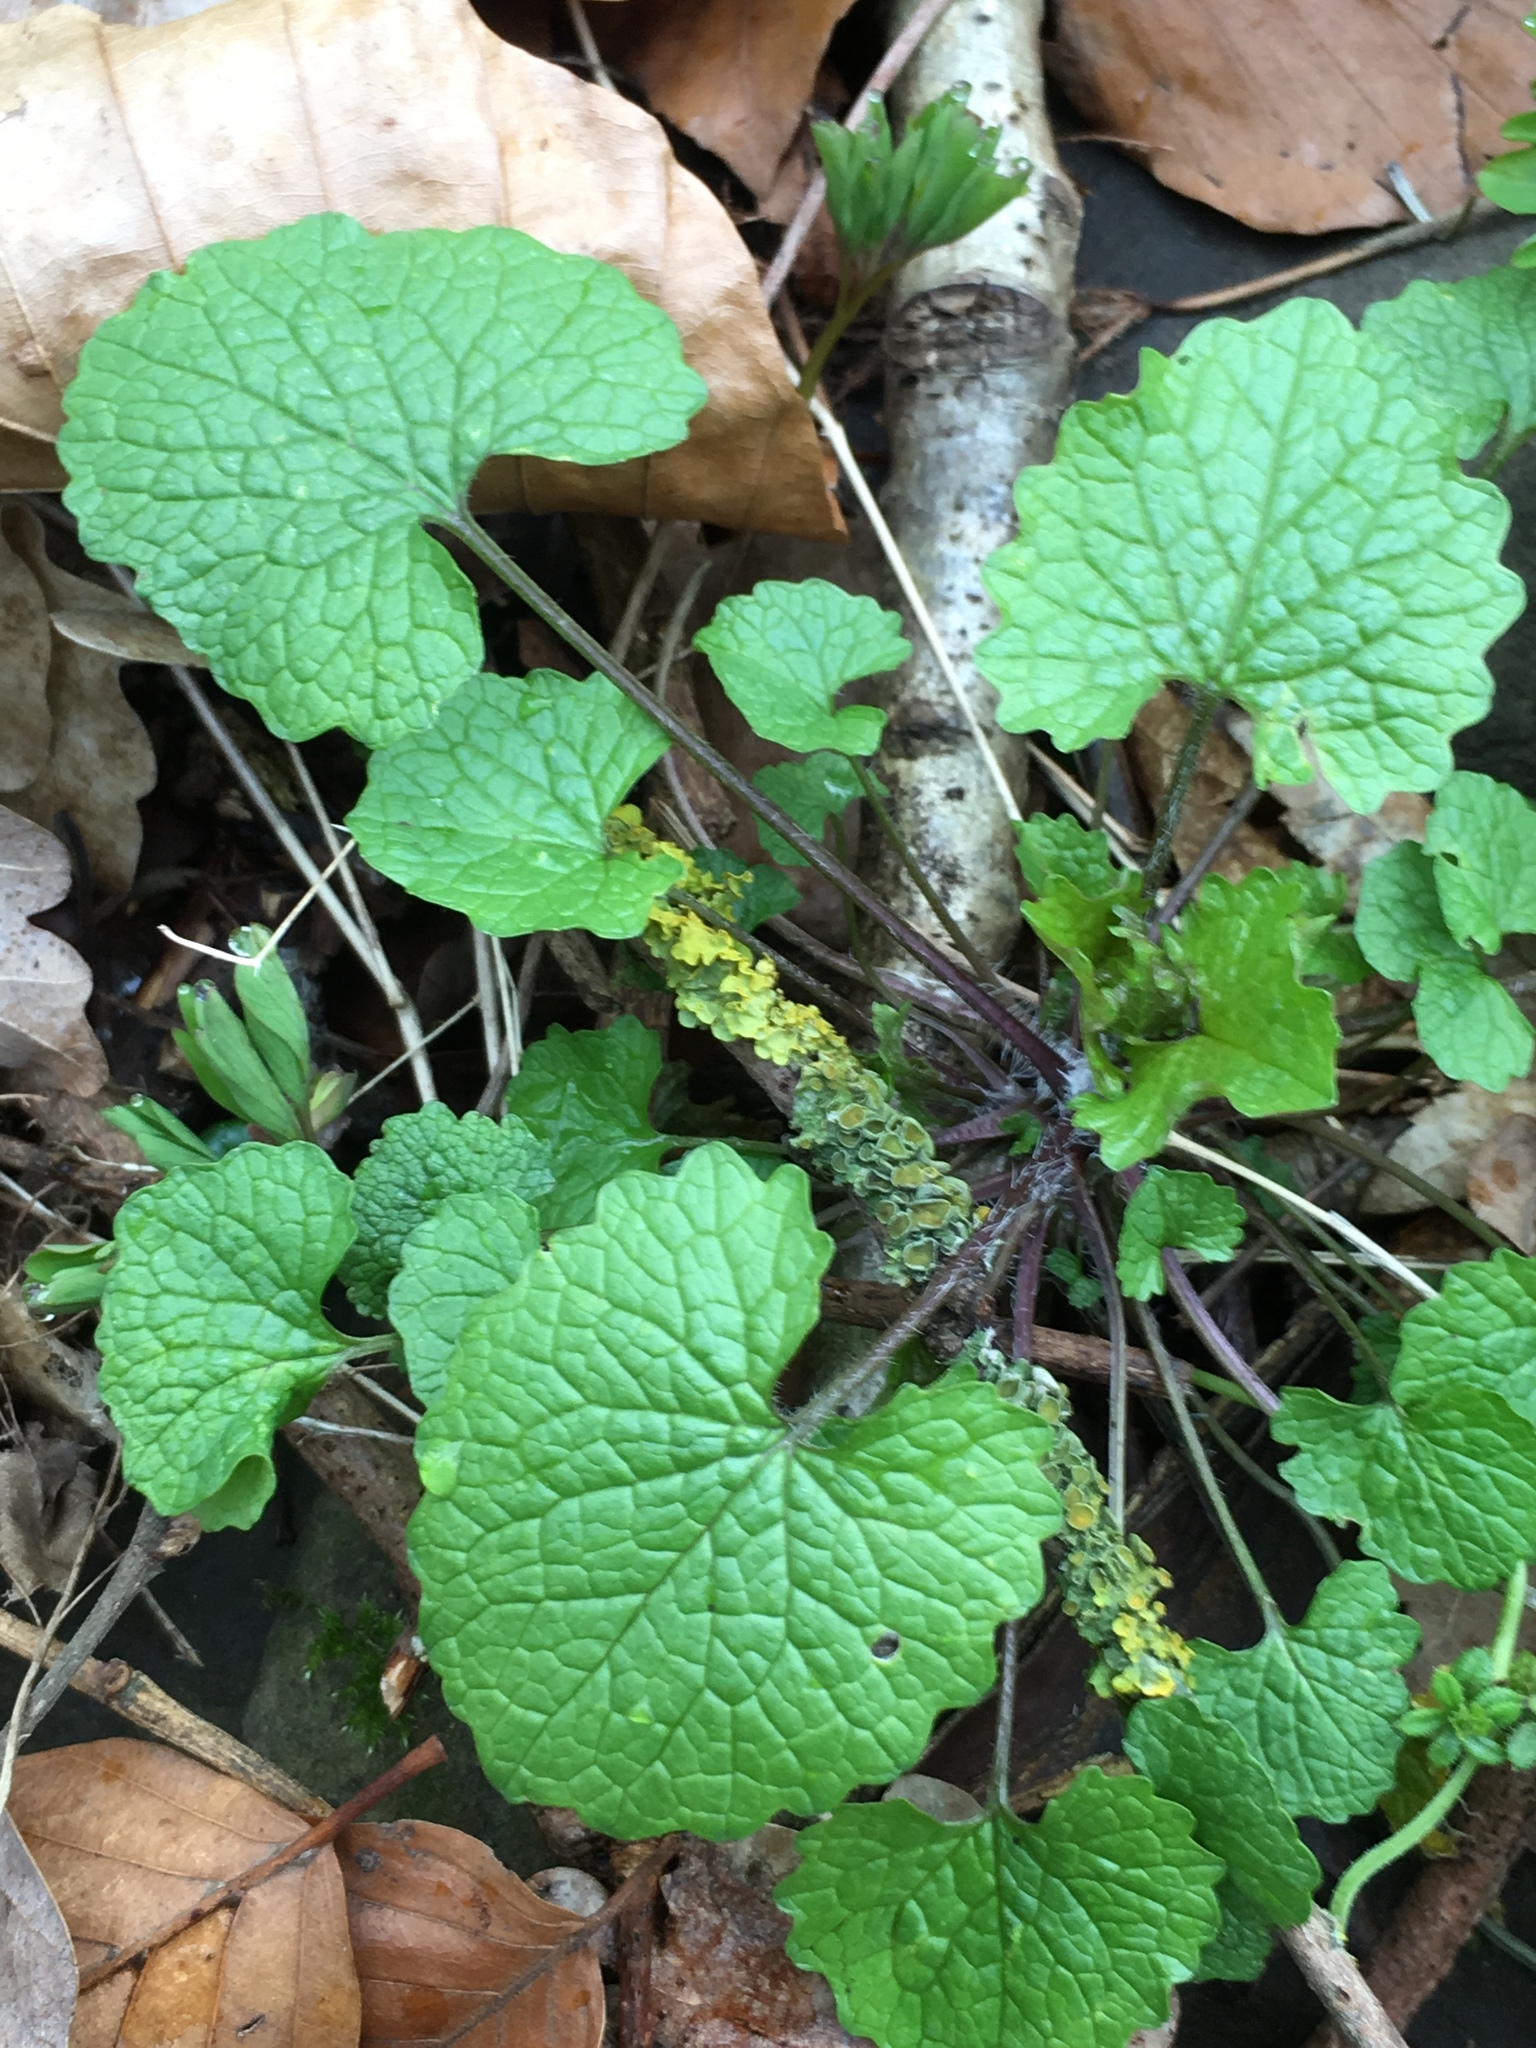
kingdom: Plantae
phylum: Tracheophyta
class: Magnoliopsida
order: Brassicales
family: Brassicaceae
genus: Alliaria
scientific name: Alliaria petiolata
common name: Garlic mustard
